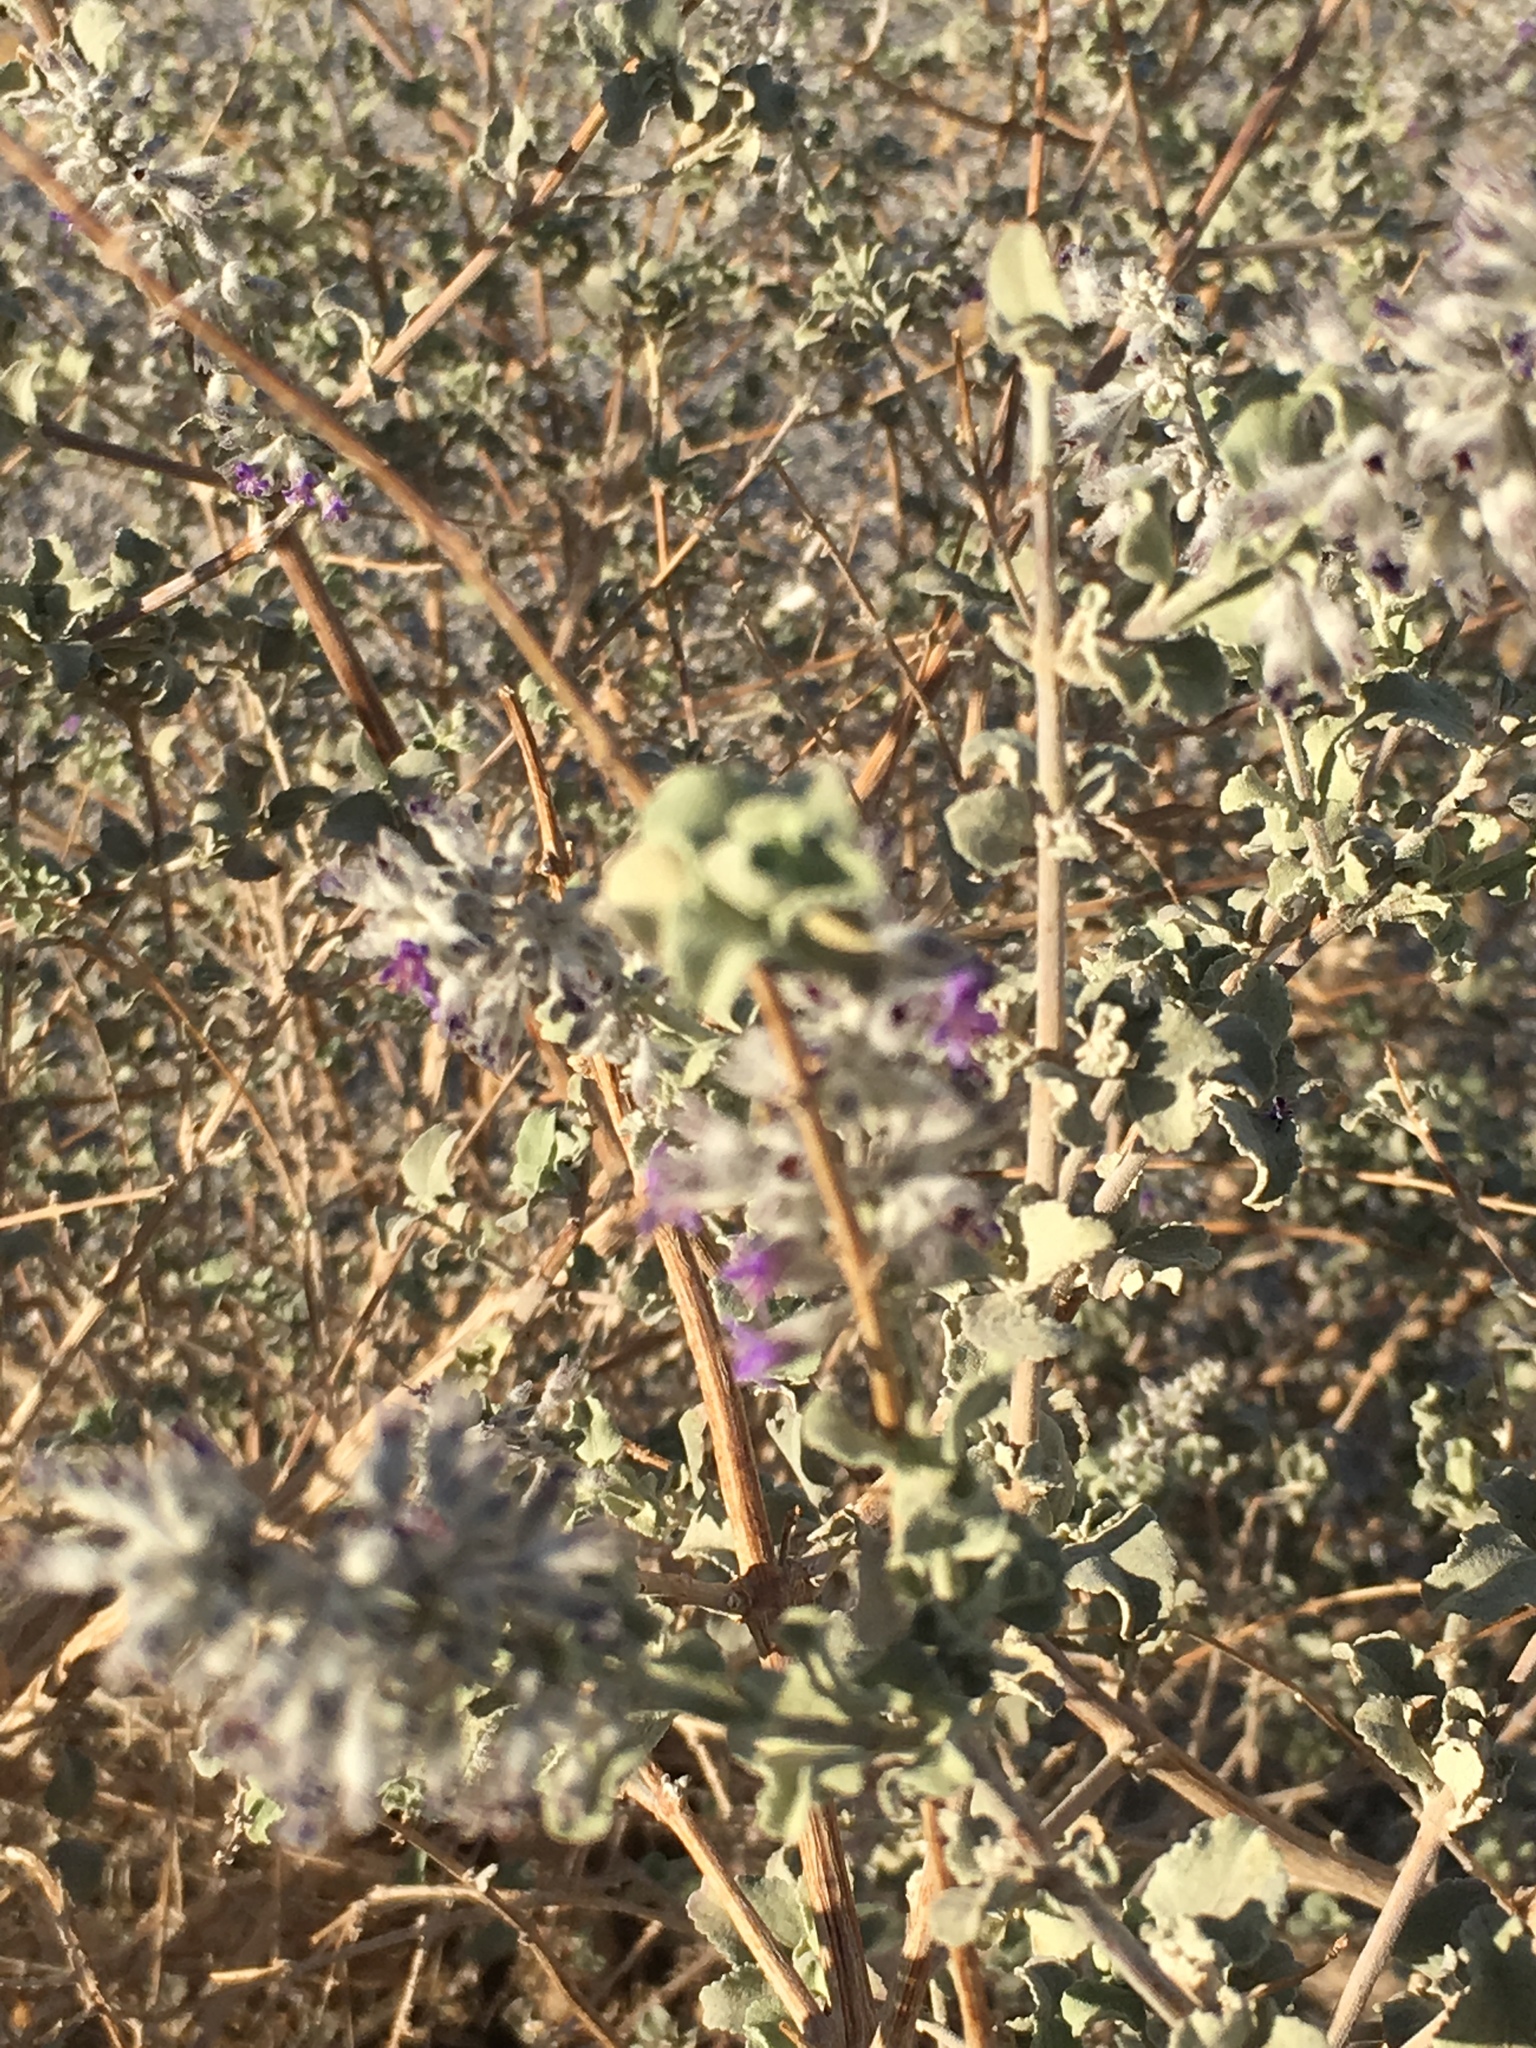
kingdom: Plantae
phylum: Tracheophyta
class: Magnoliopsida
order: Lamiales
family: Lamiaceae
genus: Condea
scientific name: Condea emoryi
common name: Chia
